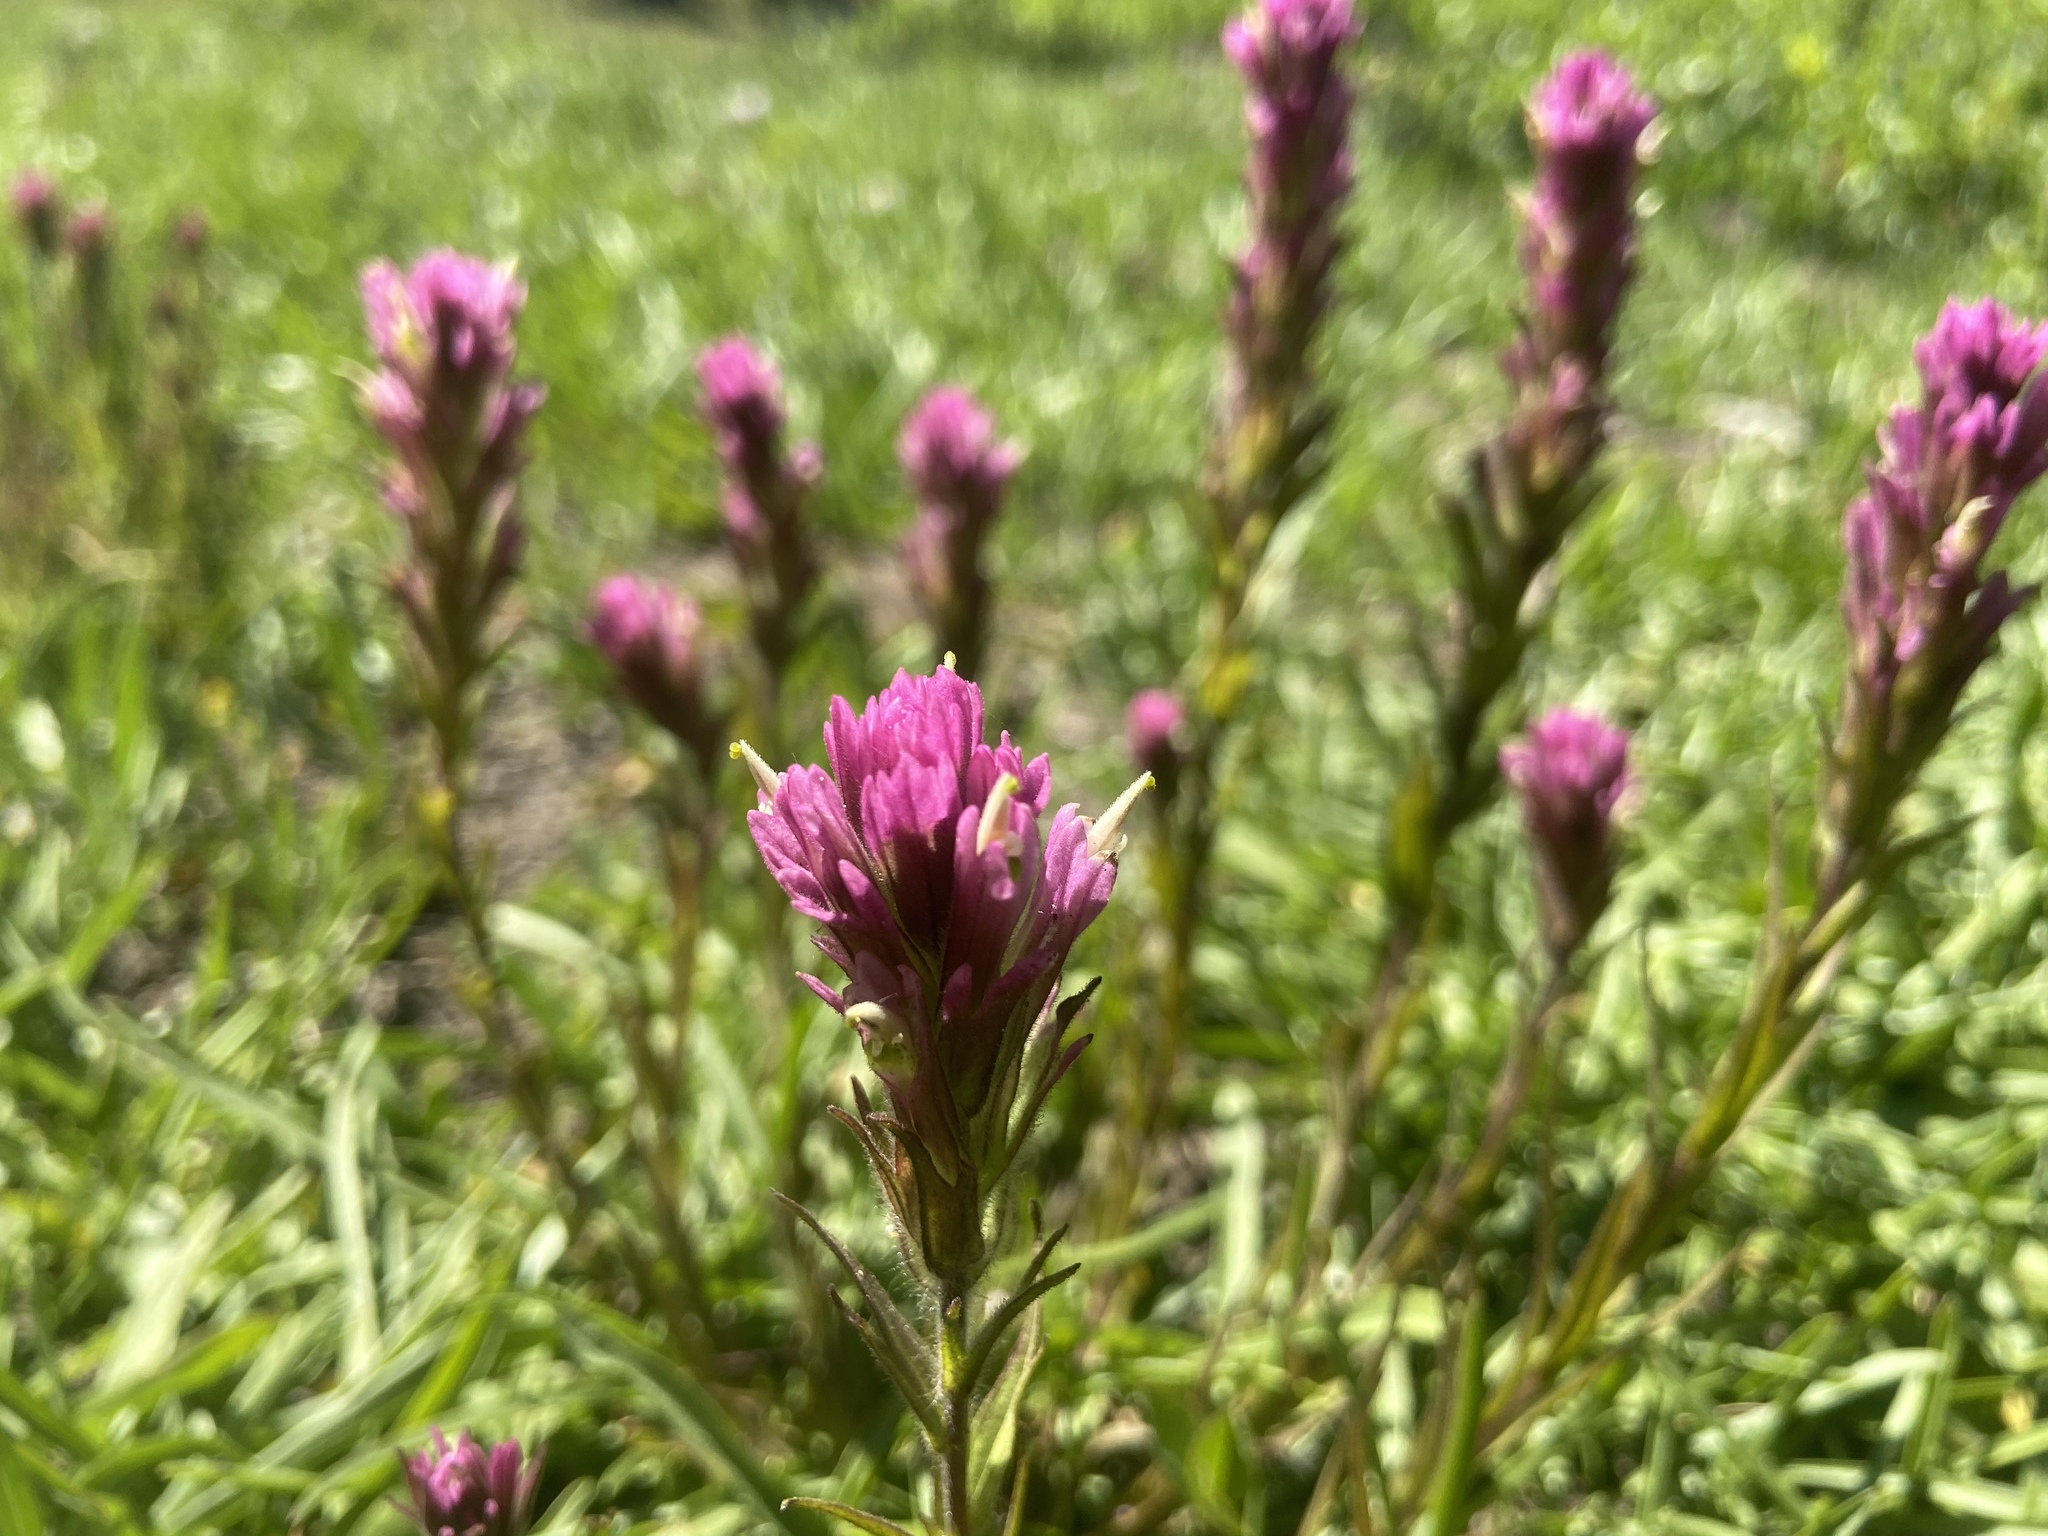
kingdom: Plantae
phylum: Tracheophyta
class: Magnoliopsida
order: Lamiales
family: Orobanchaceae
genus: Castilleja
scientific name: Castilleja lassenensis
